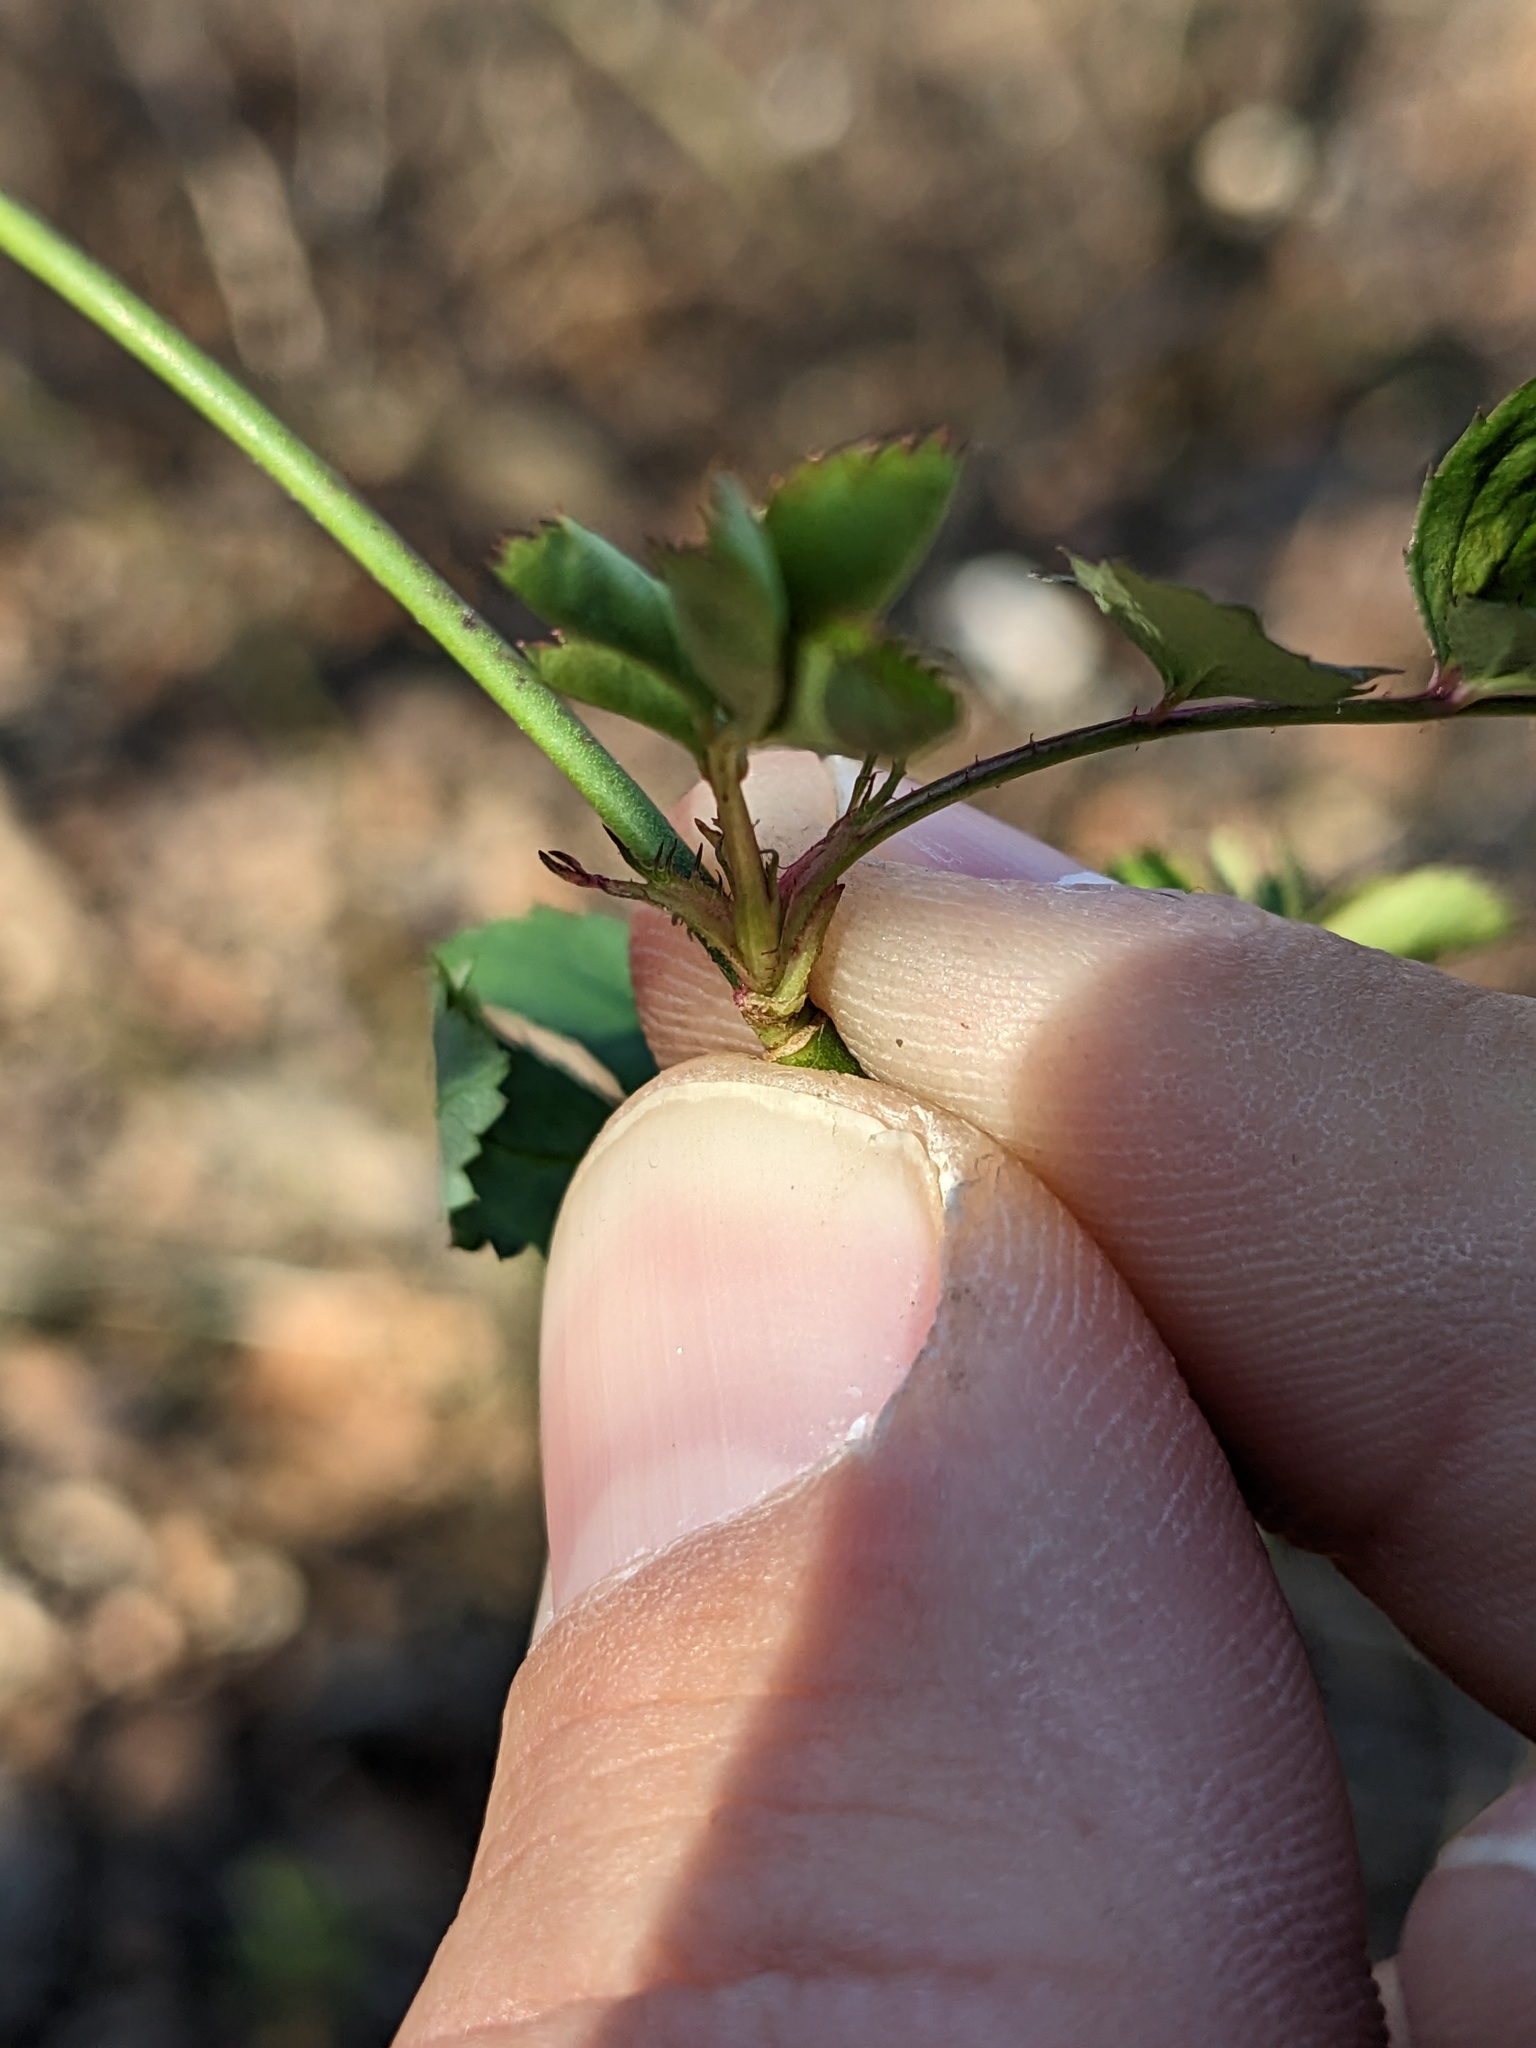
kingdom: Plantae
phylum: Tracheophyta
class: Magnoliopsida
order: Rosales
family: Rosaceae
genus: Rosa
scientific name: Rosa multiflora
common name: Multiflora rose
